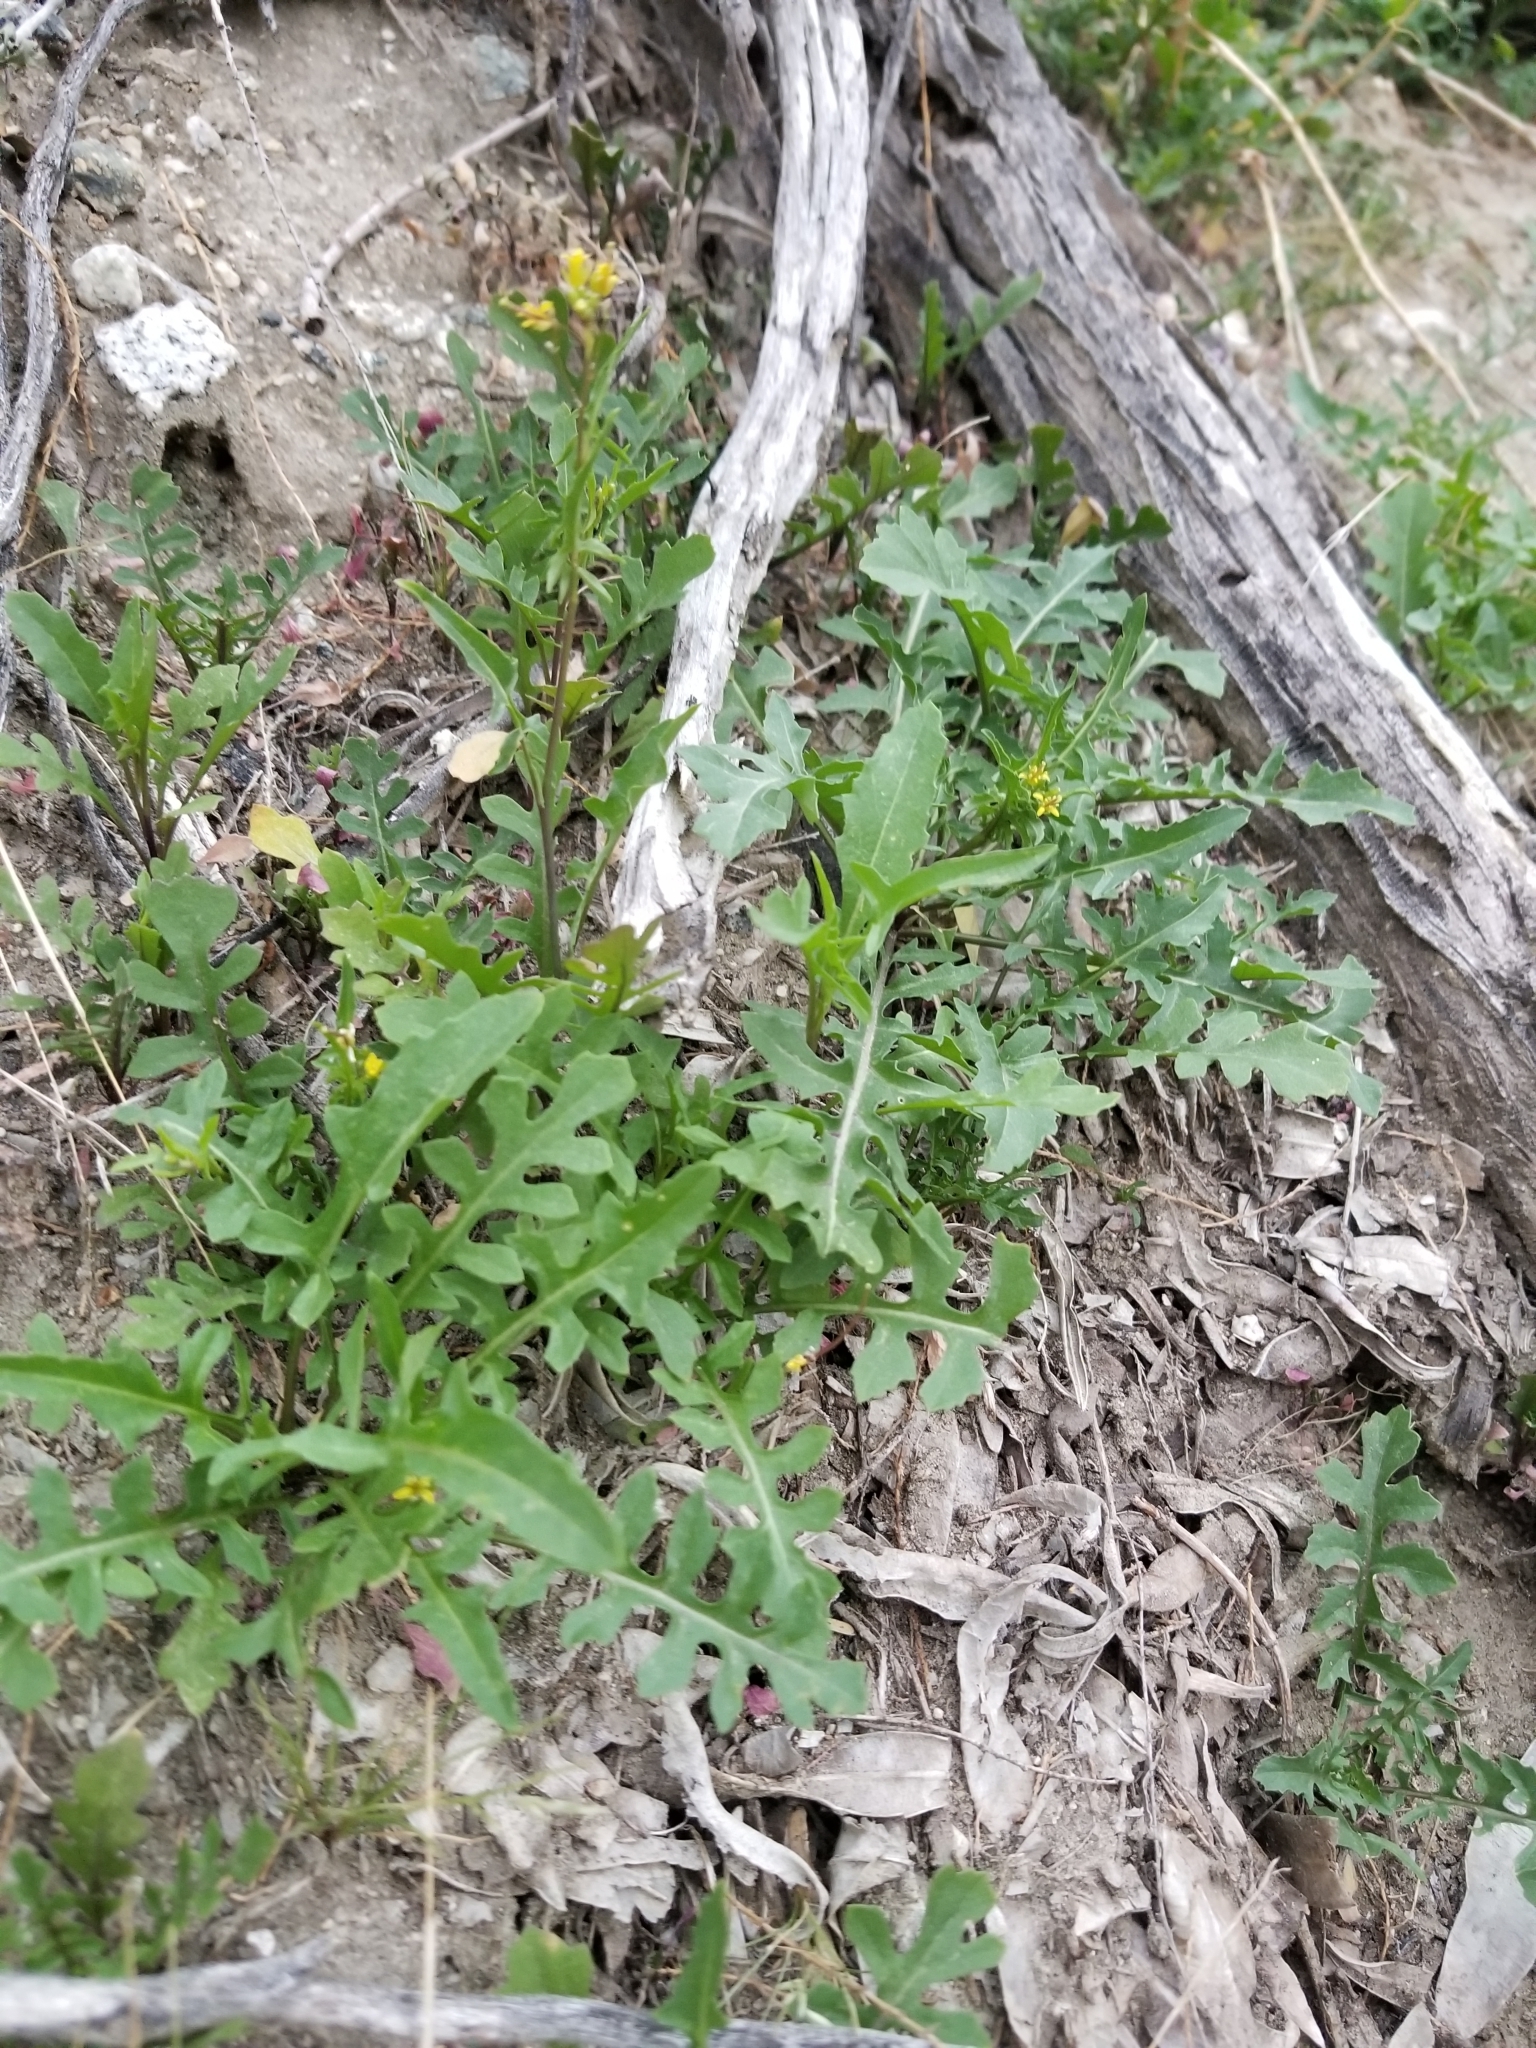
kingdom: Plantae
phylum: Tracheophyta
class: Magnoliopsida
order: Brassicales
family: Brassicaceae
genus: Sisymbrium
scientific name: Sisymbrium irio
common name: London rocket
